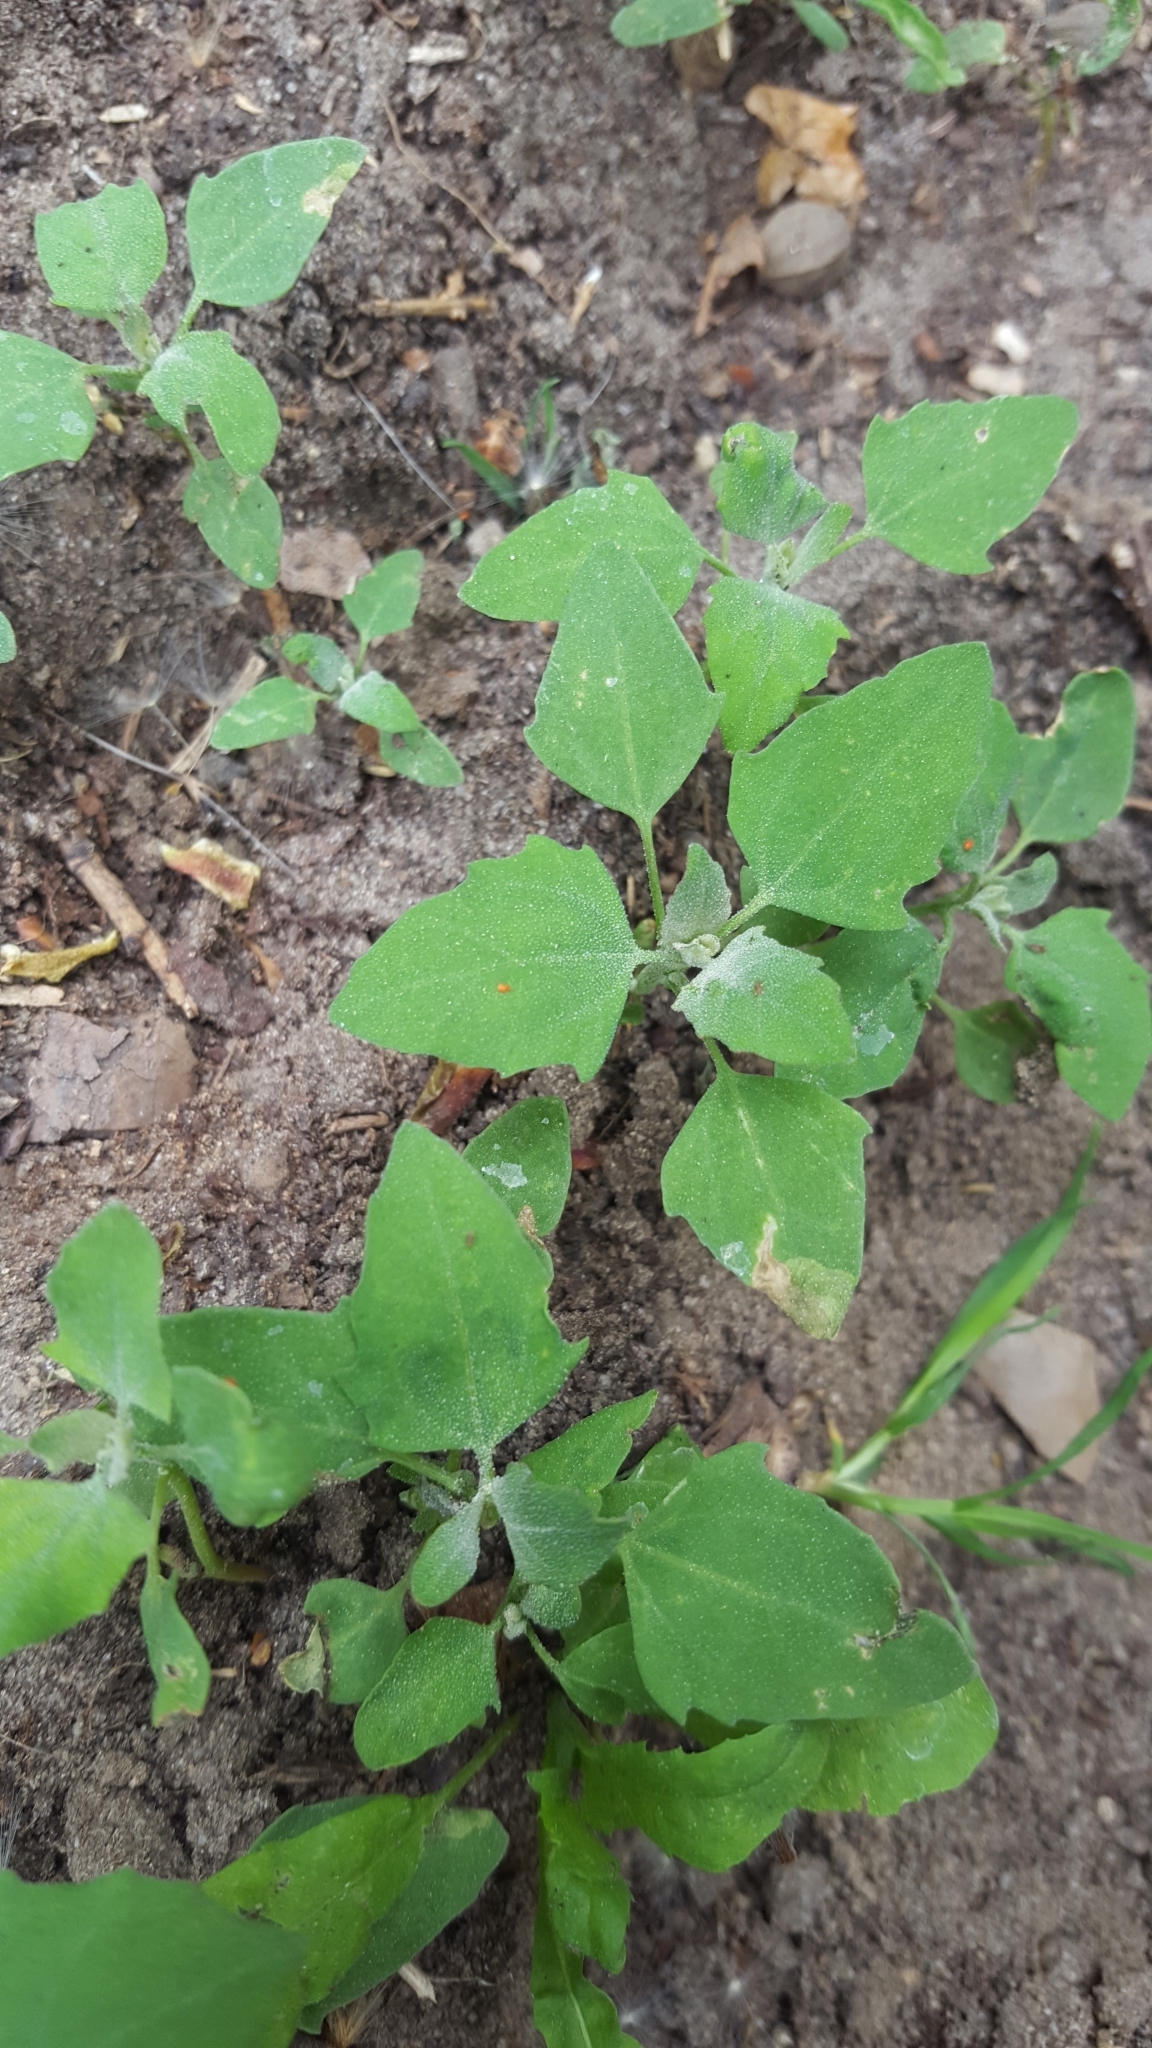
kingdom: Plantae
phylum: Tracheophyta
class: Magnoliopsida
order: Caryophyllales
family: Amaranthaceae
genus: Chenopodium
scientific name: Chenopodium album
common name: Fat-hen
